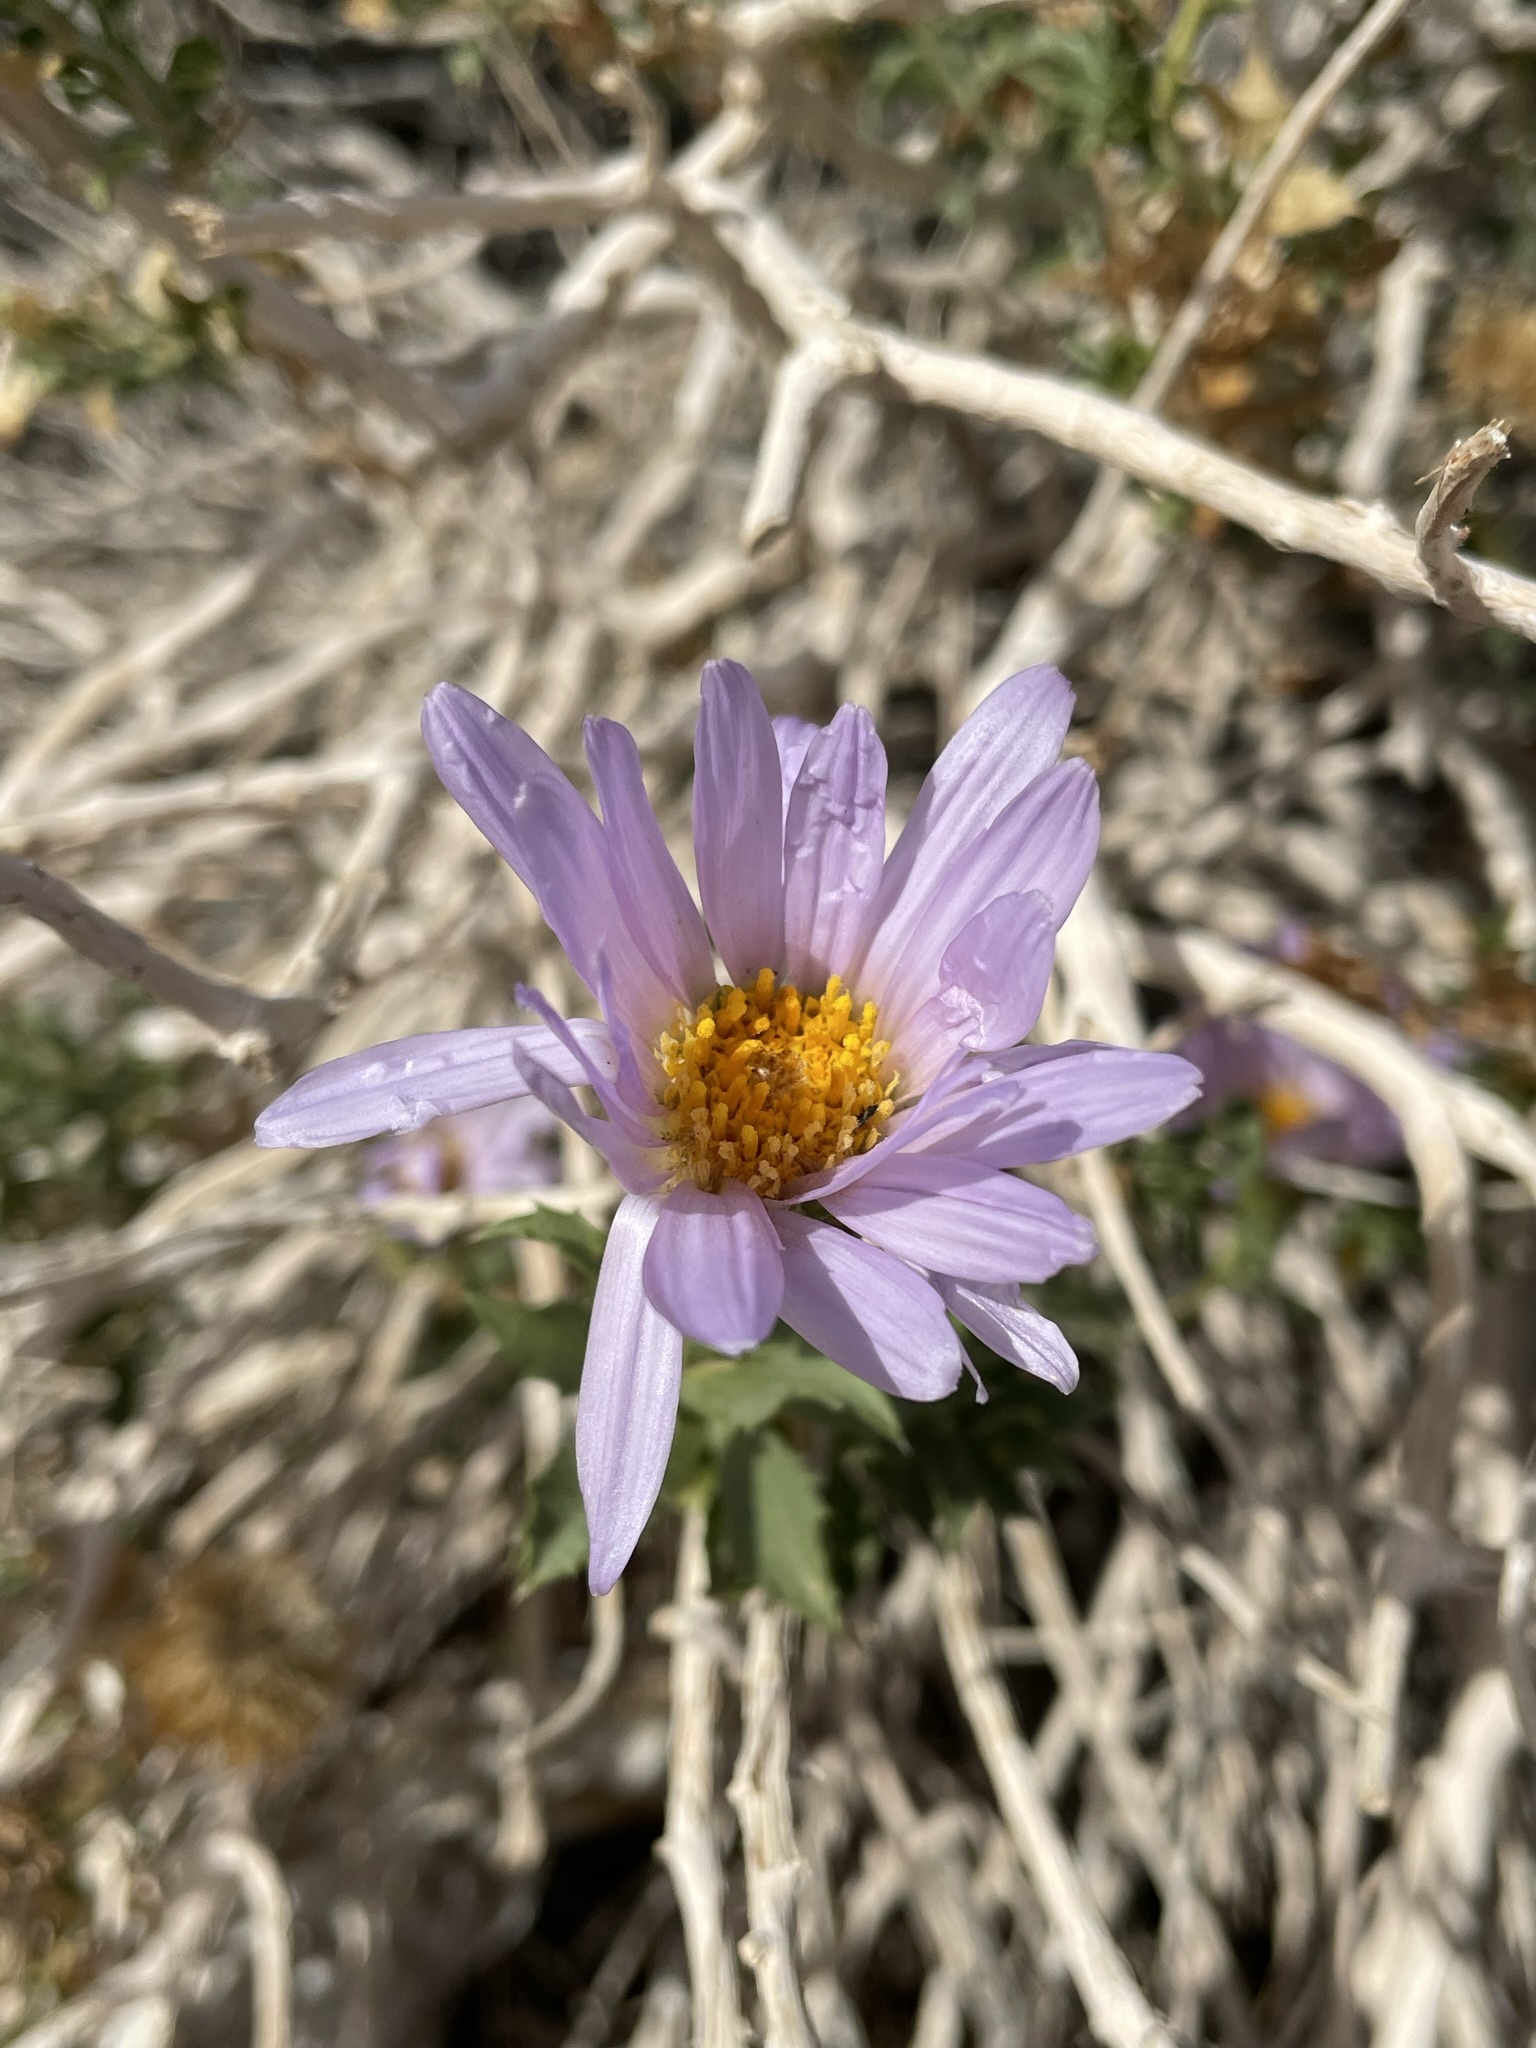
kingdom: Plantae
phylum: Tracheophyta
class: Magnoliopsida
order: Asterales
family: Asteraceae
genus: Xylorhiza
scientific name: Xylorhiza orcuttii
